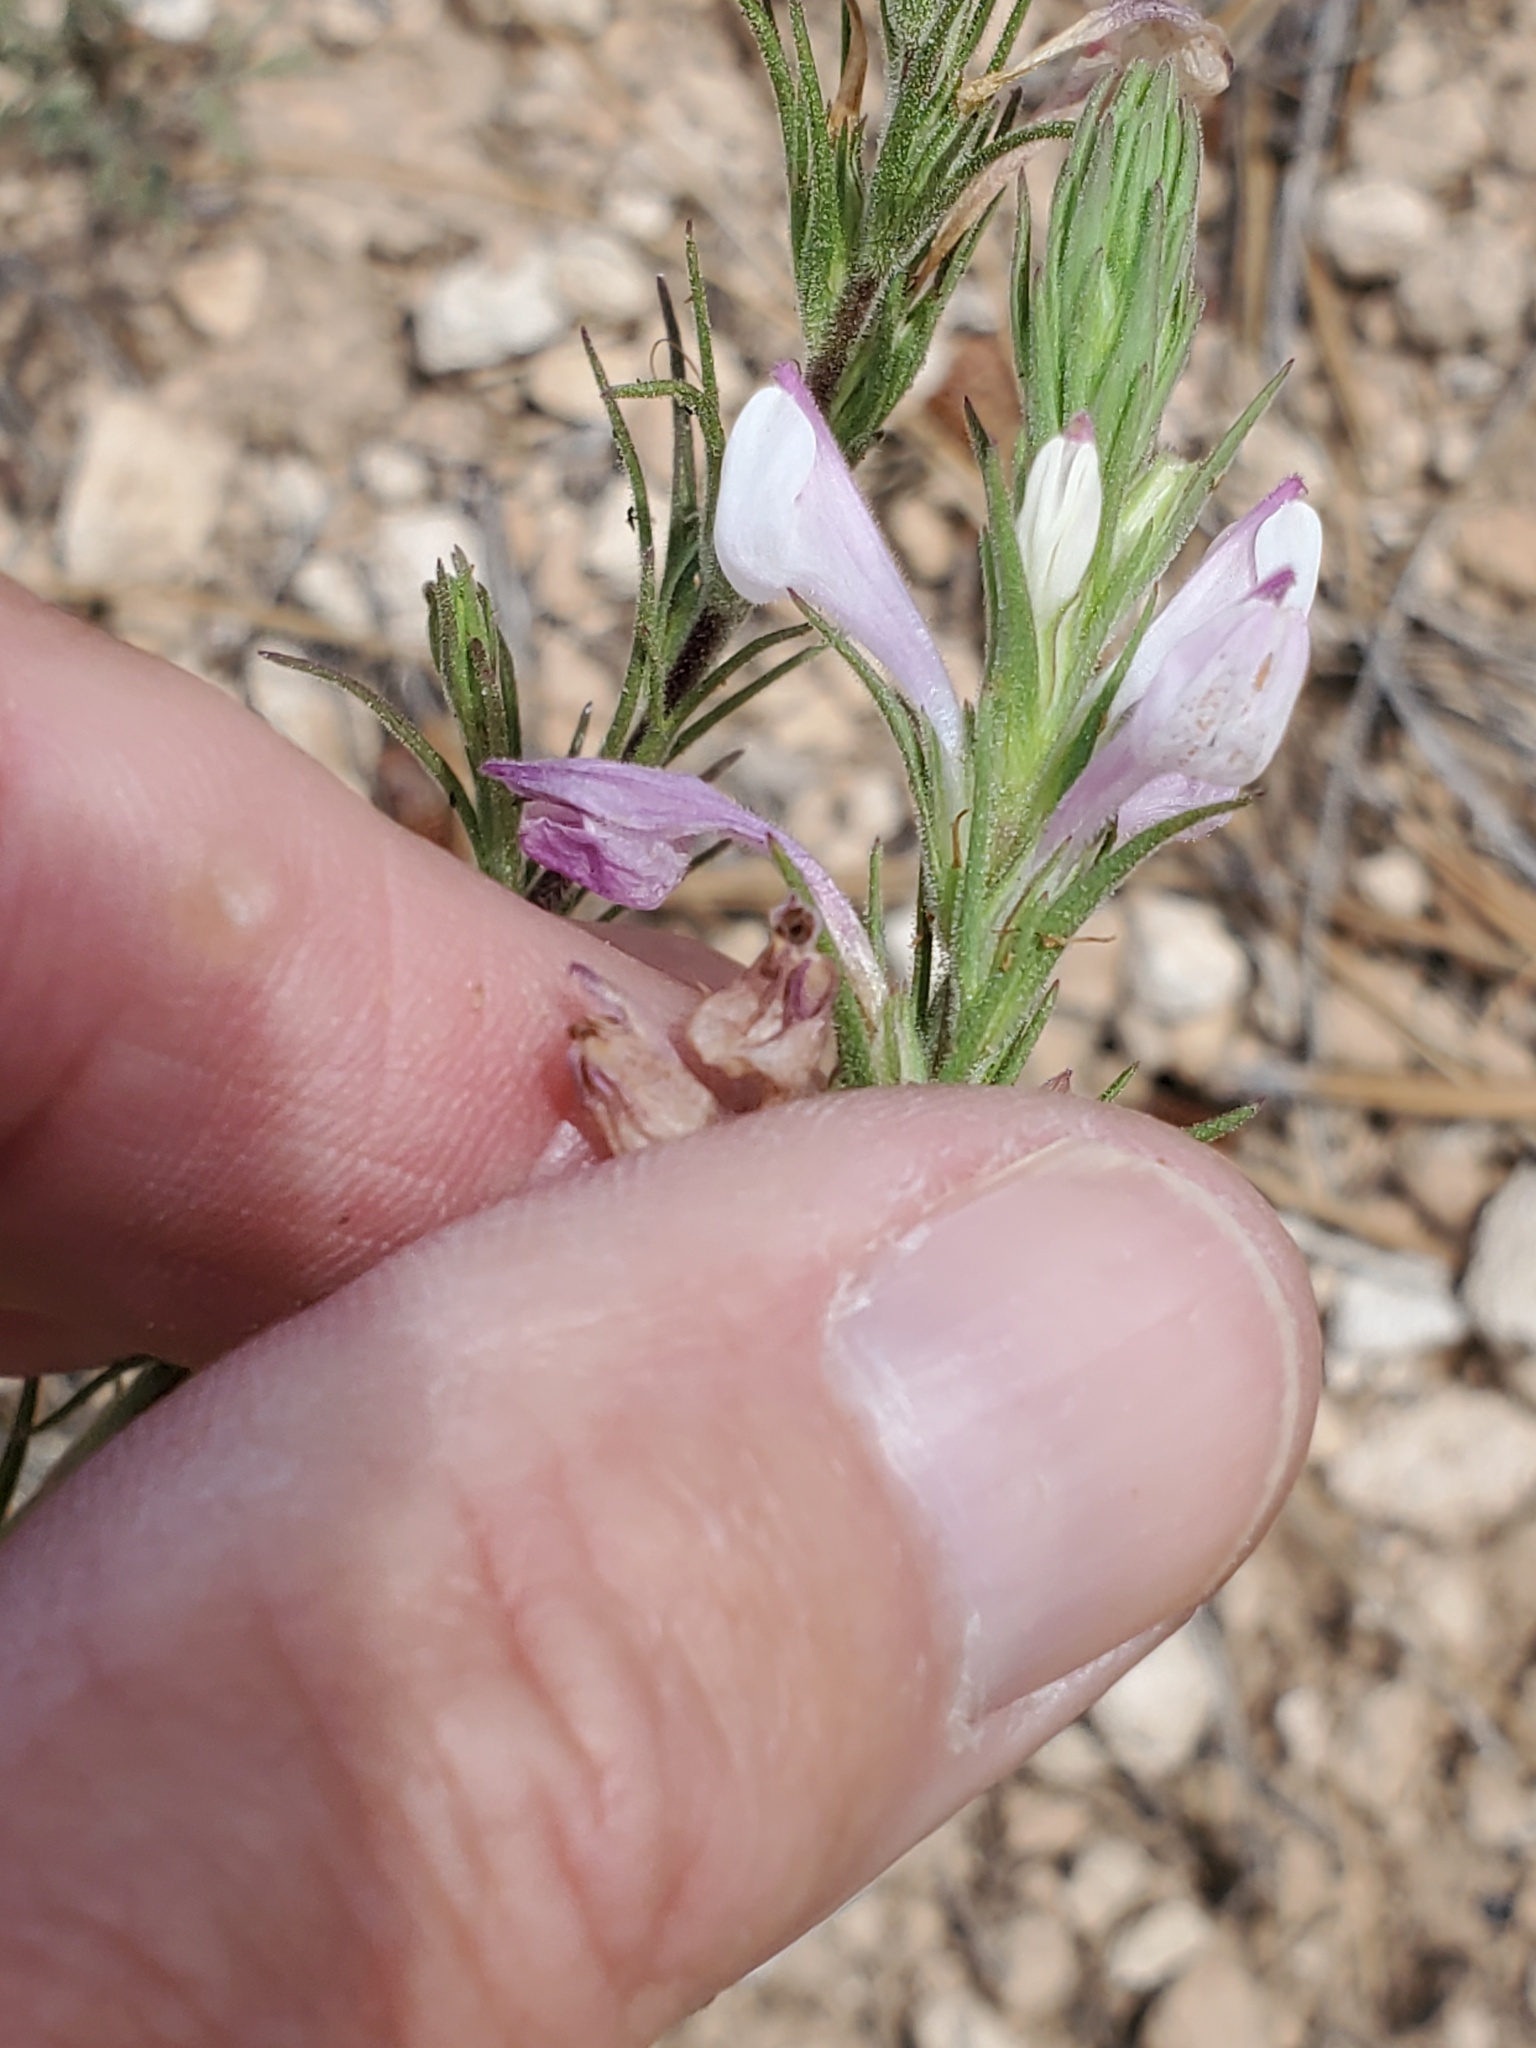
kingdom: Plantae
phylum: Tracheophyta
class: Magnoliopsida
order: Lamiales
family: Orobanchaceae
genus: Orthocarpus
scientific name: Orthocarpus purpureoalbus
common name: Violet owl-clover
